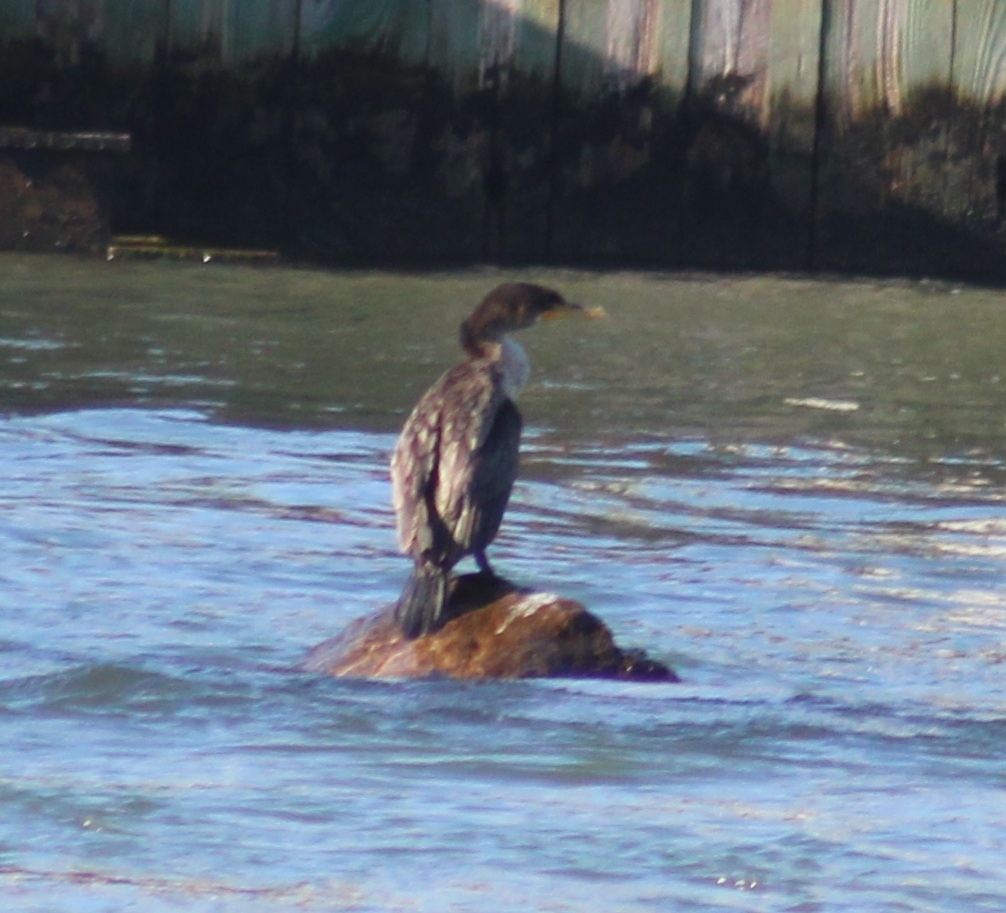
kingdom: Animalia
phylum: Chordata
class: Aves
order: Suliformes
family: Phalacrocoracidae
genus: Phalacrocorax
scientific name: Phalacrocorax auritus
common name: Double-crested cormorant
